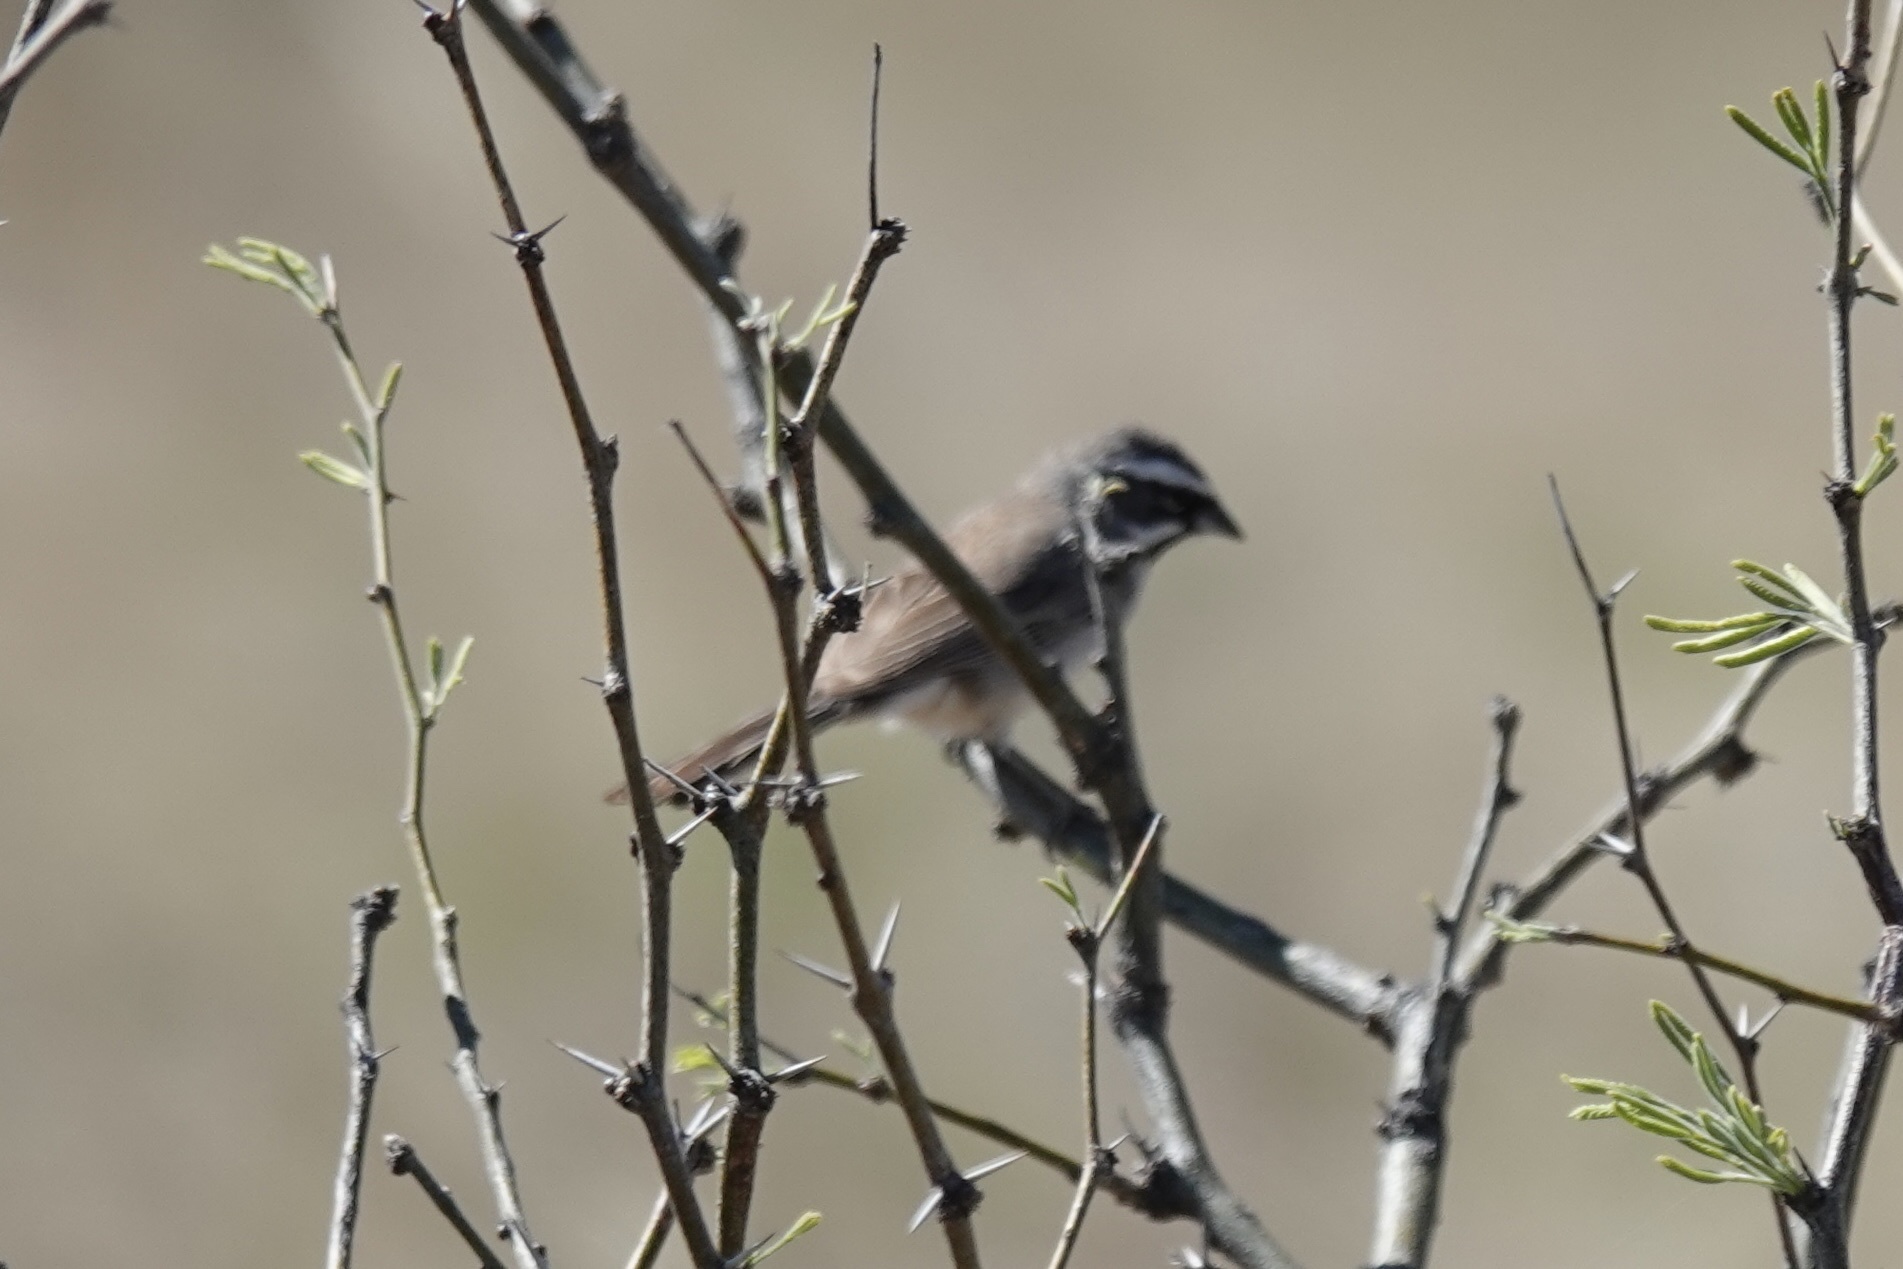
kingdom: Animalia
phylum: Chordata
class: Aves
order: Passeriformes
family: Passerellidae
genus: Amphispiza
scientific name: Amphispiza bilineata
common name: Black-throated sparrow
